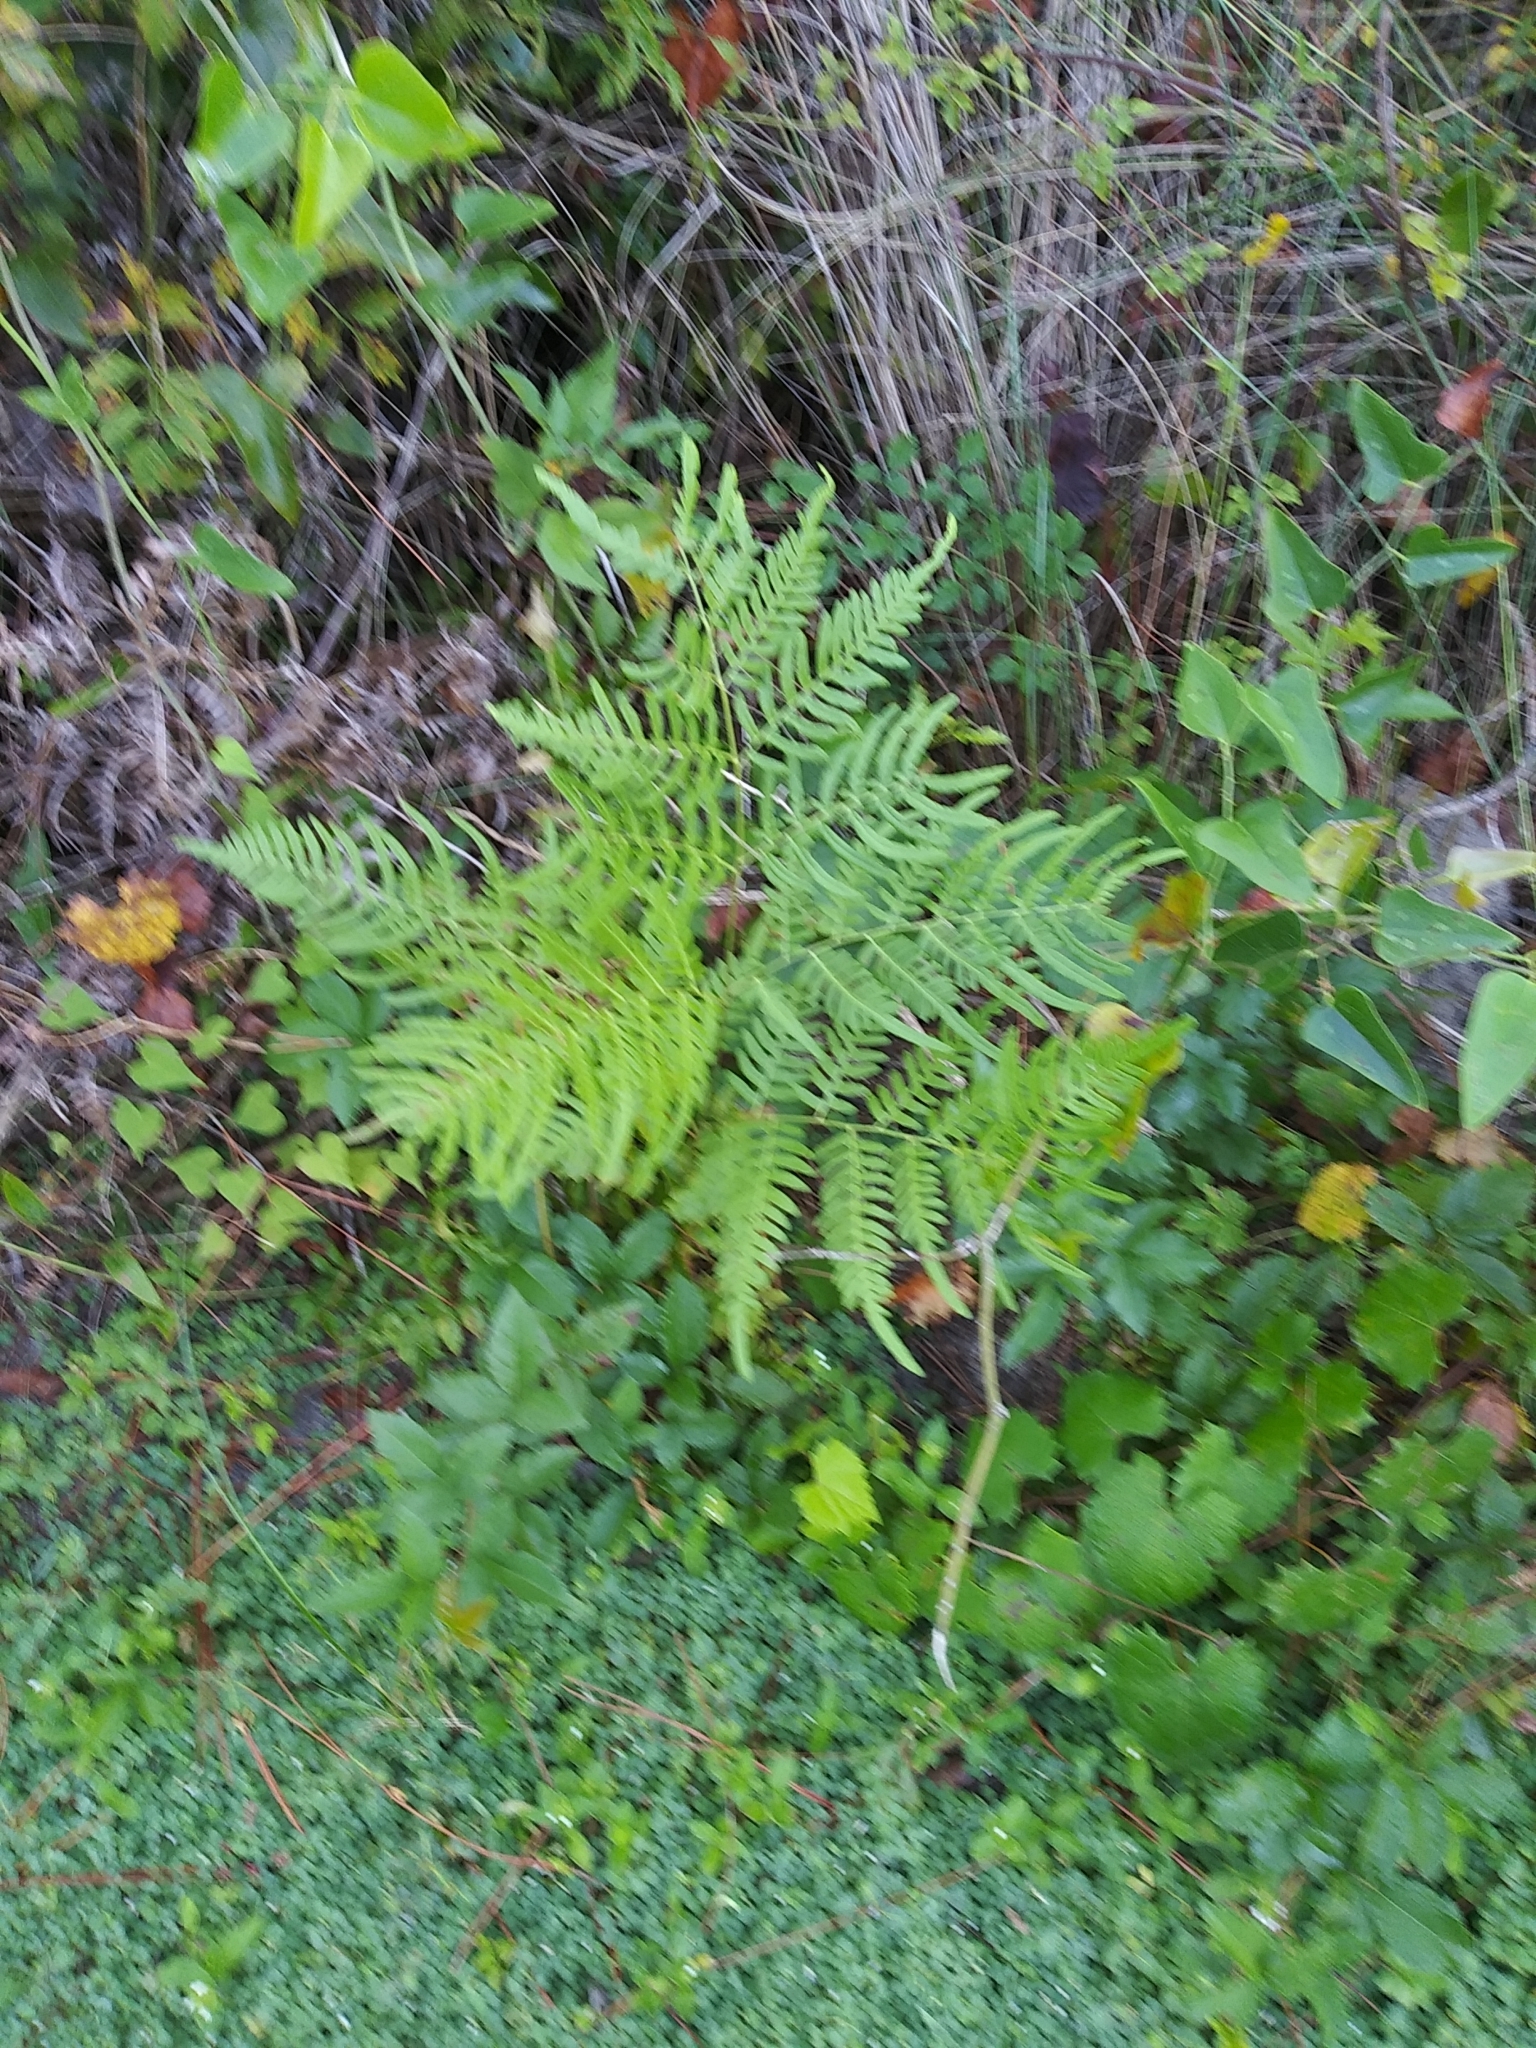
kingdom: Plantae
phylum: Tracheophyta
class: Polypodiopsida
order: Polypodiales
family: Dennstaedtiaceae
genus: Pteridium
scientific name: Pteridium
